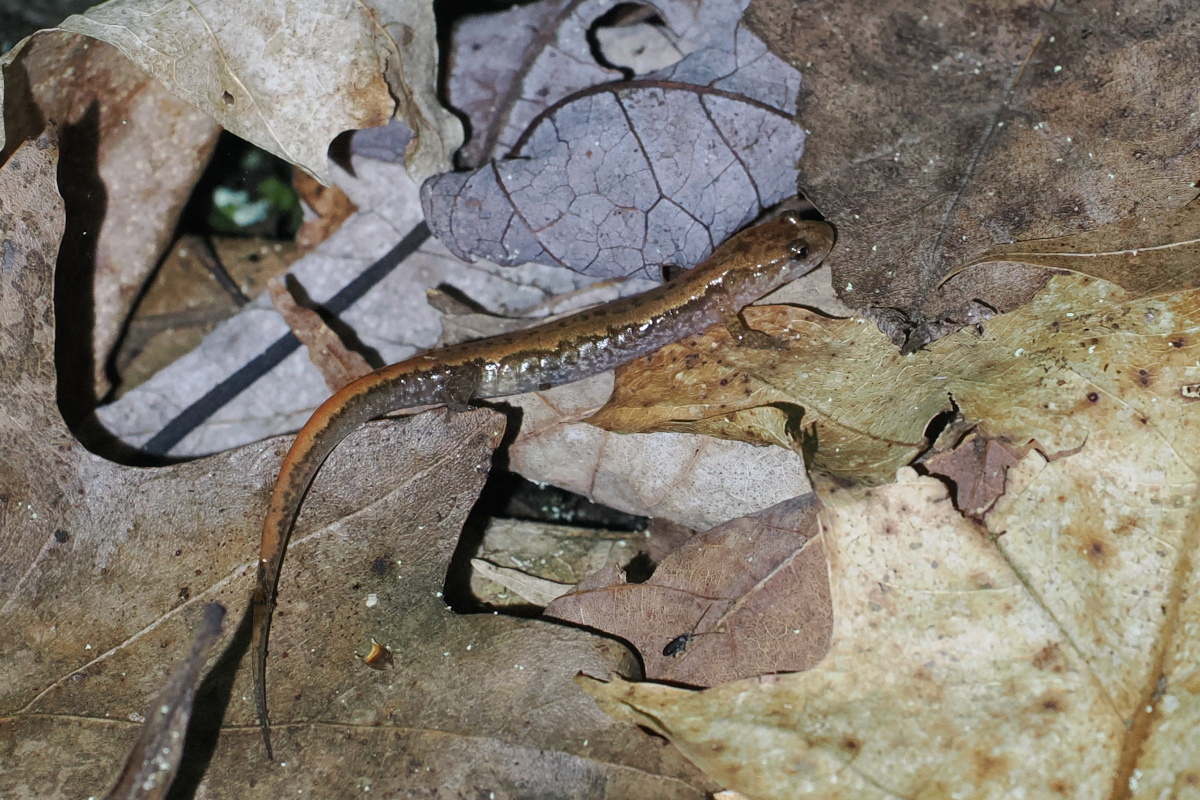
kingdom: Animalia
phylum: Chordata
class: Amphibia
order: Caudata
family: Plethodontidae
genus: Desmognathus
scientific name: Desmognathus orestes
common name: Blue ridge dusky salamander
